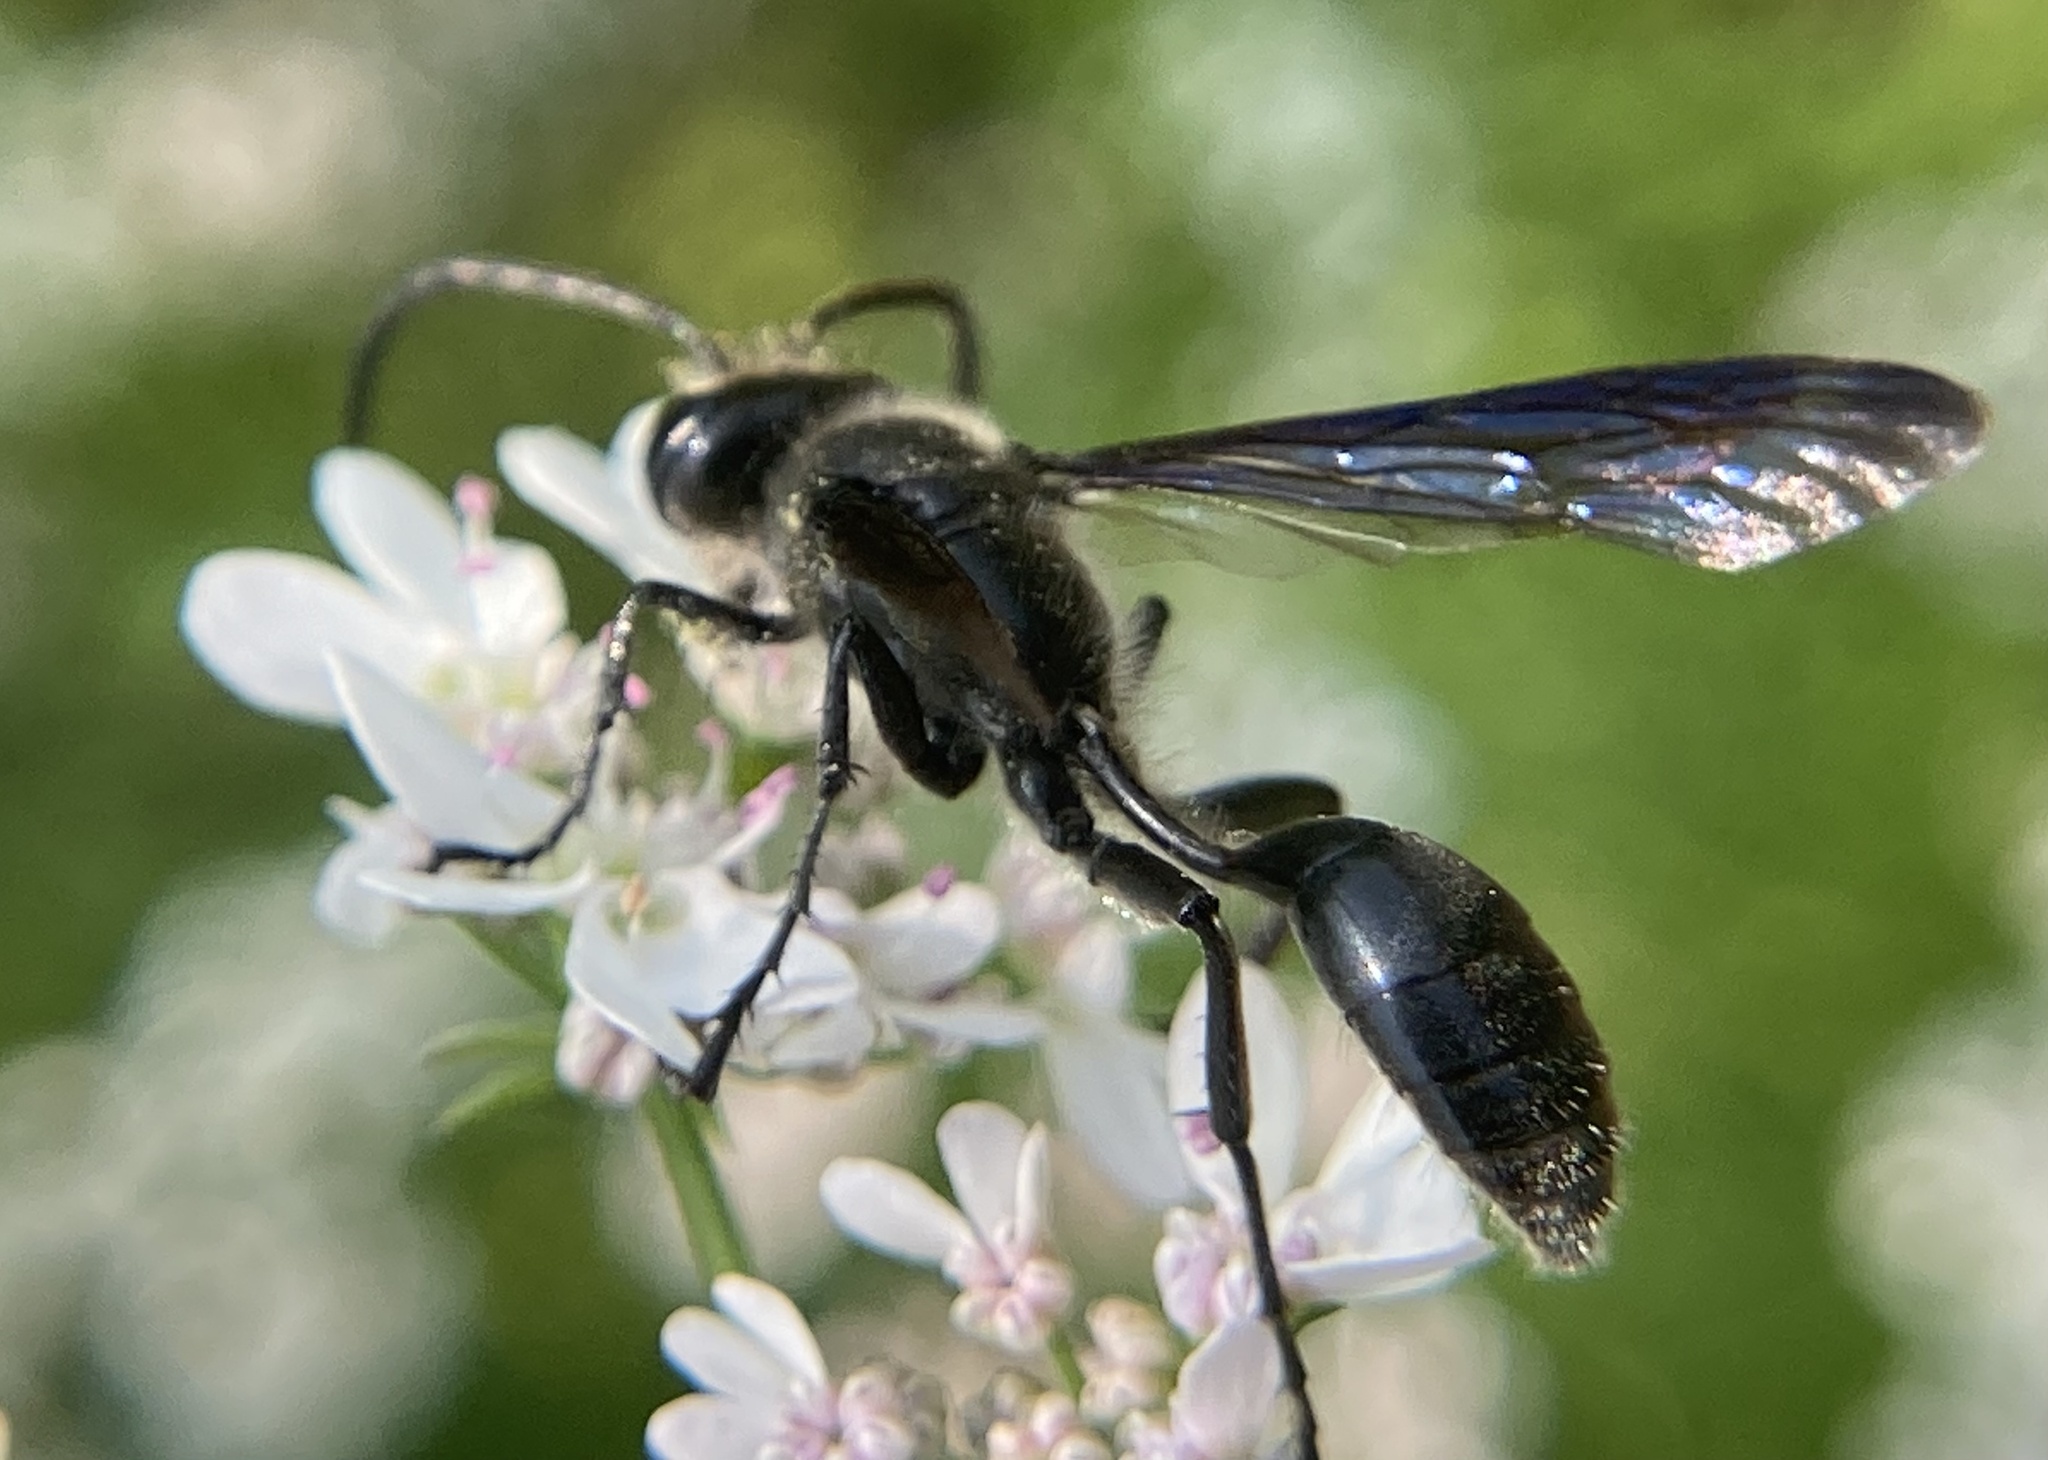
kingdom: Animalia
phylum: Arthropoda
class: Insecta
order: Hymenoptera
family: Sphecidae
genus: Isodontia
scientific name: Isodontia mexicana
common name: Mud dauber
